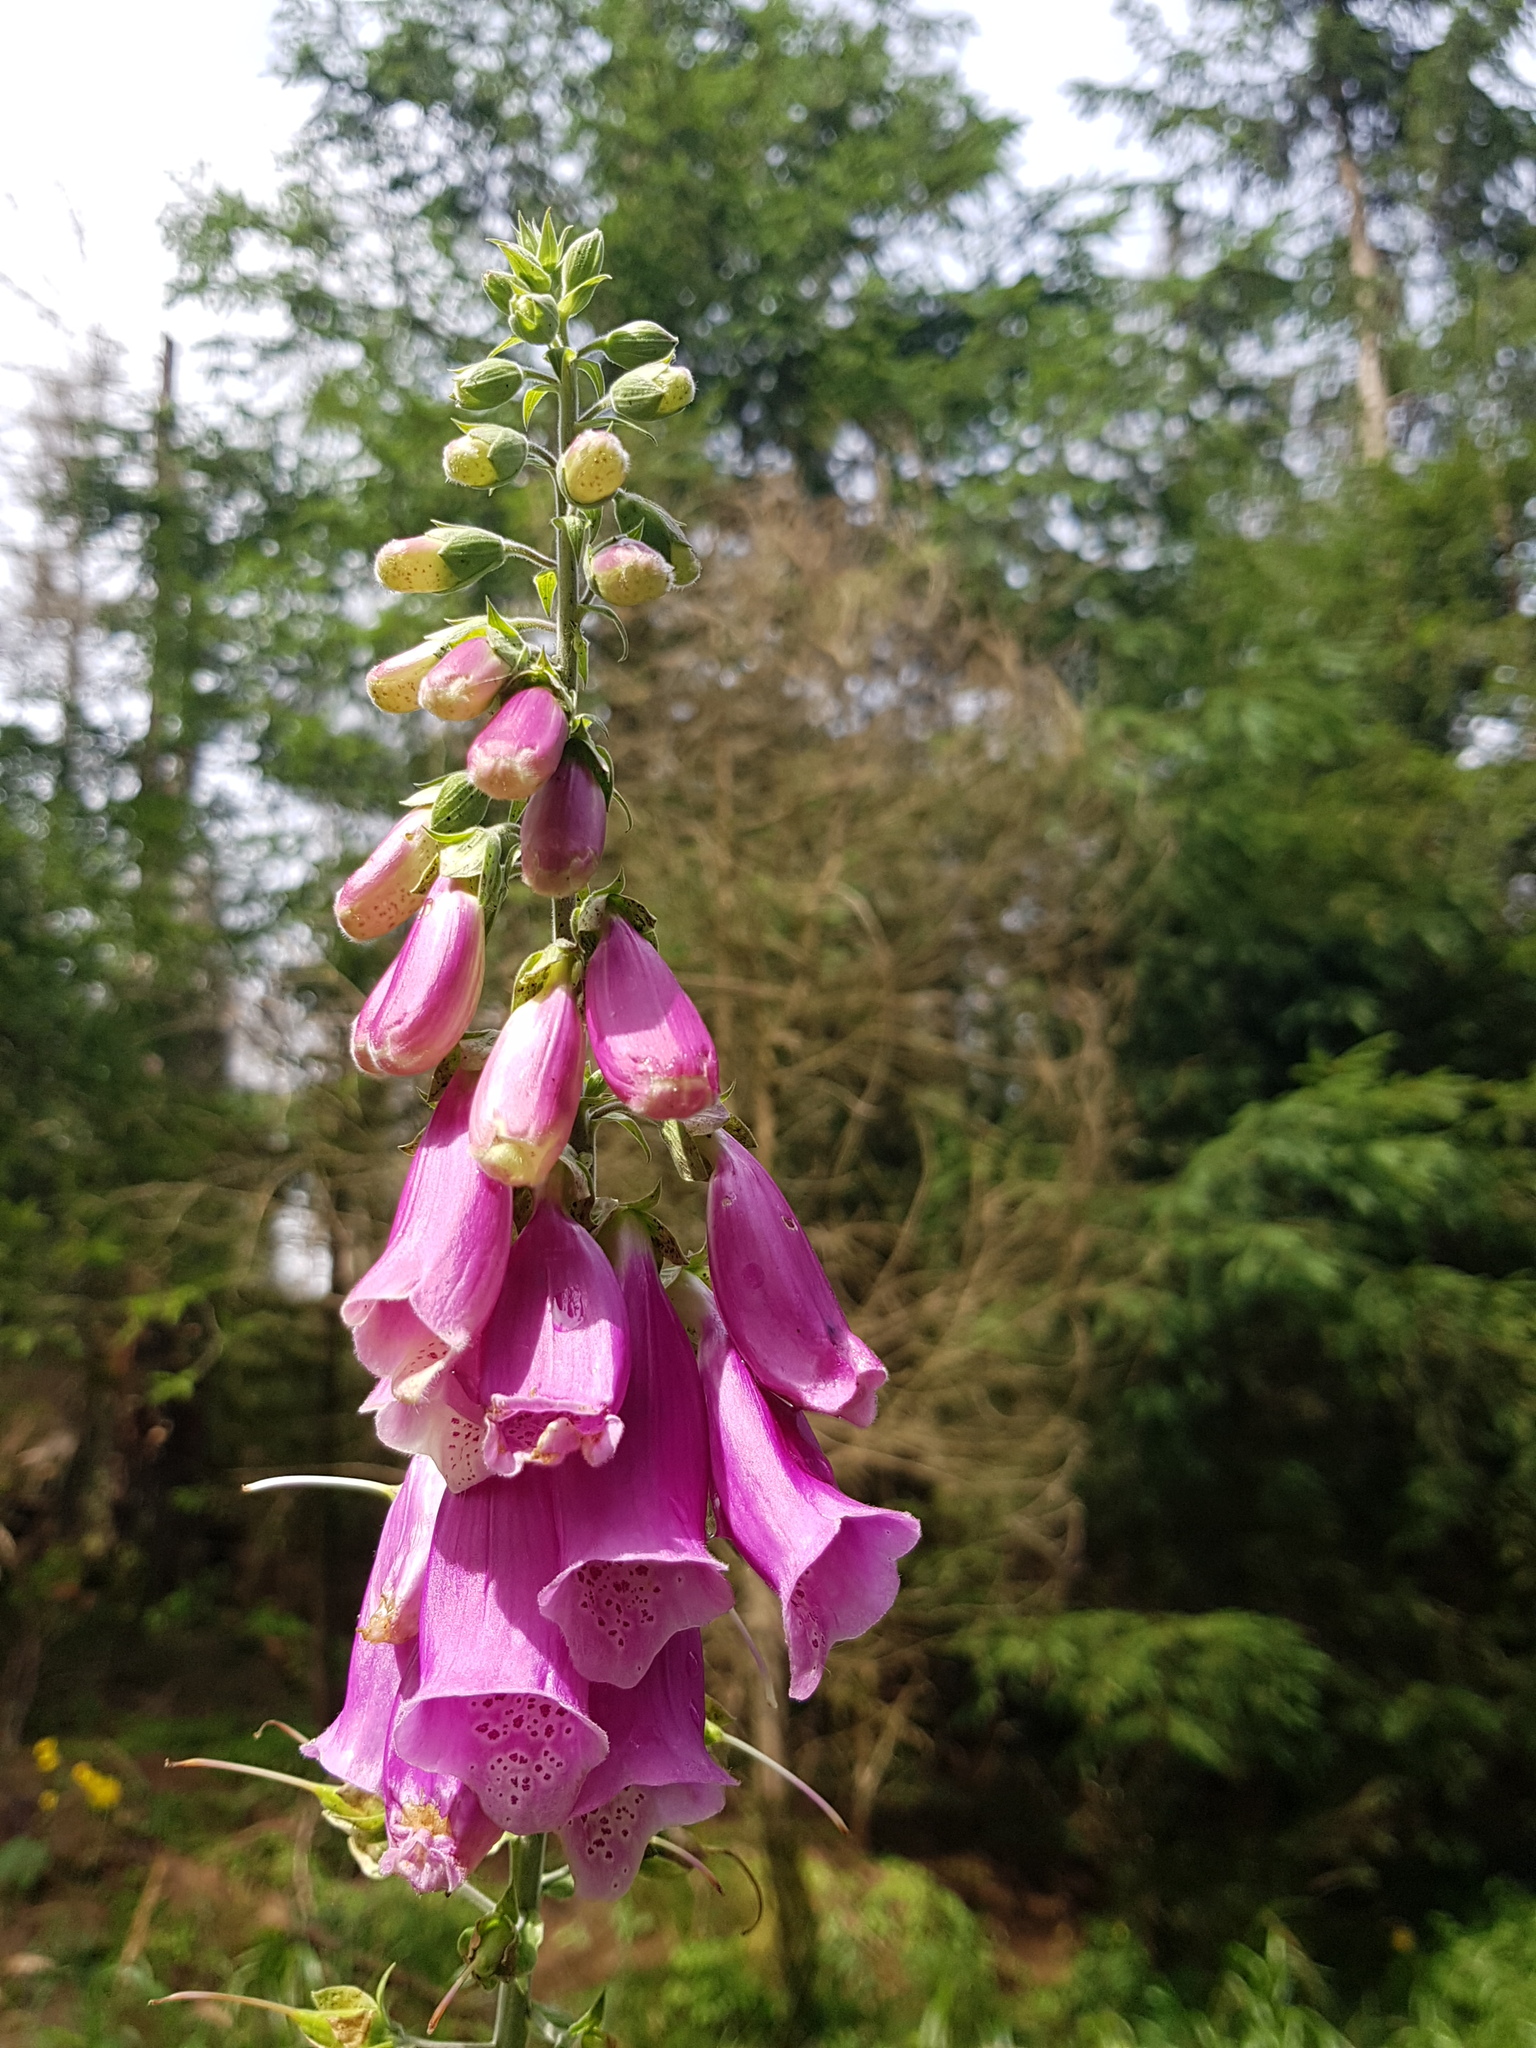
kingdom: Plantae
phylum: Tracheophyta
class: Magnoliopsida
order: Lamiales
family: Plantaginaceae
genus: Digitalis
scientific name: Digitalis purpurea
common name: Foxglove
